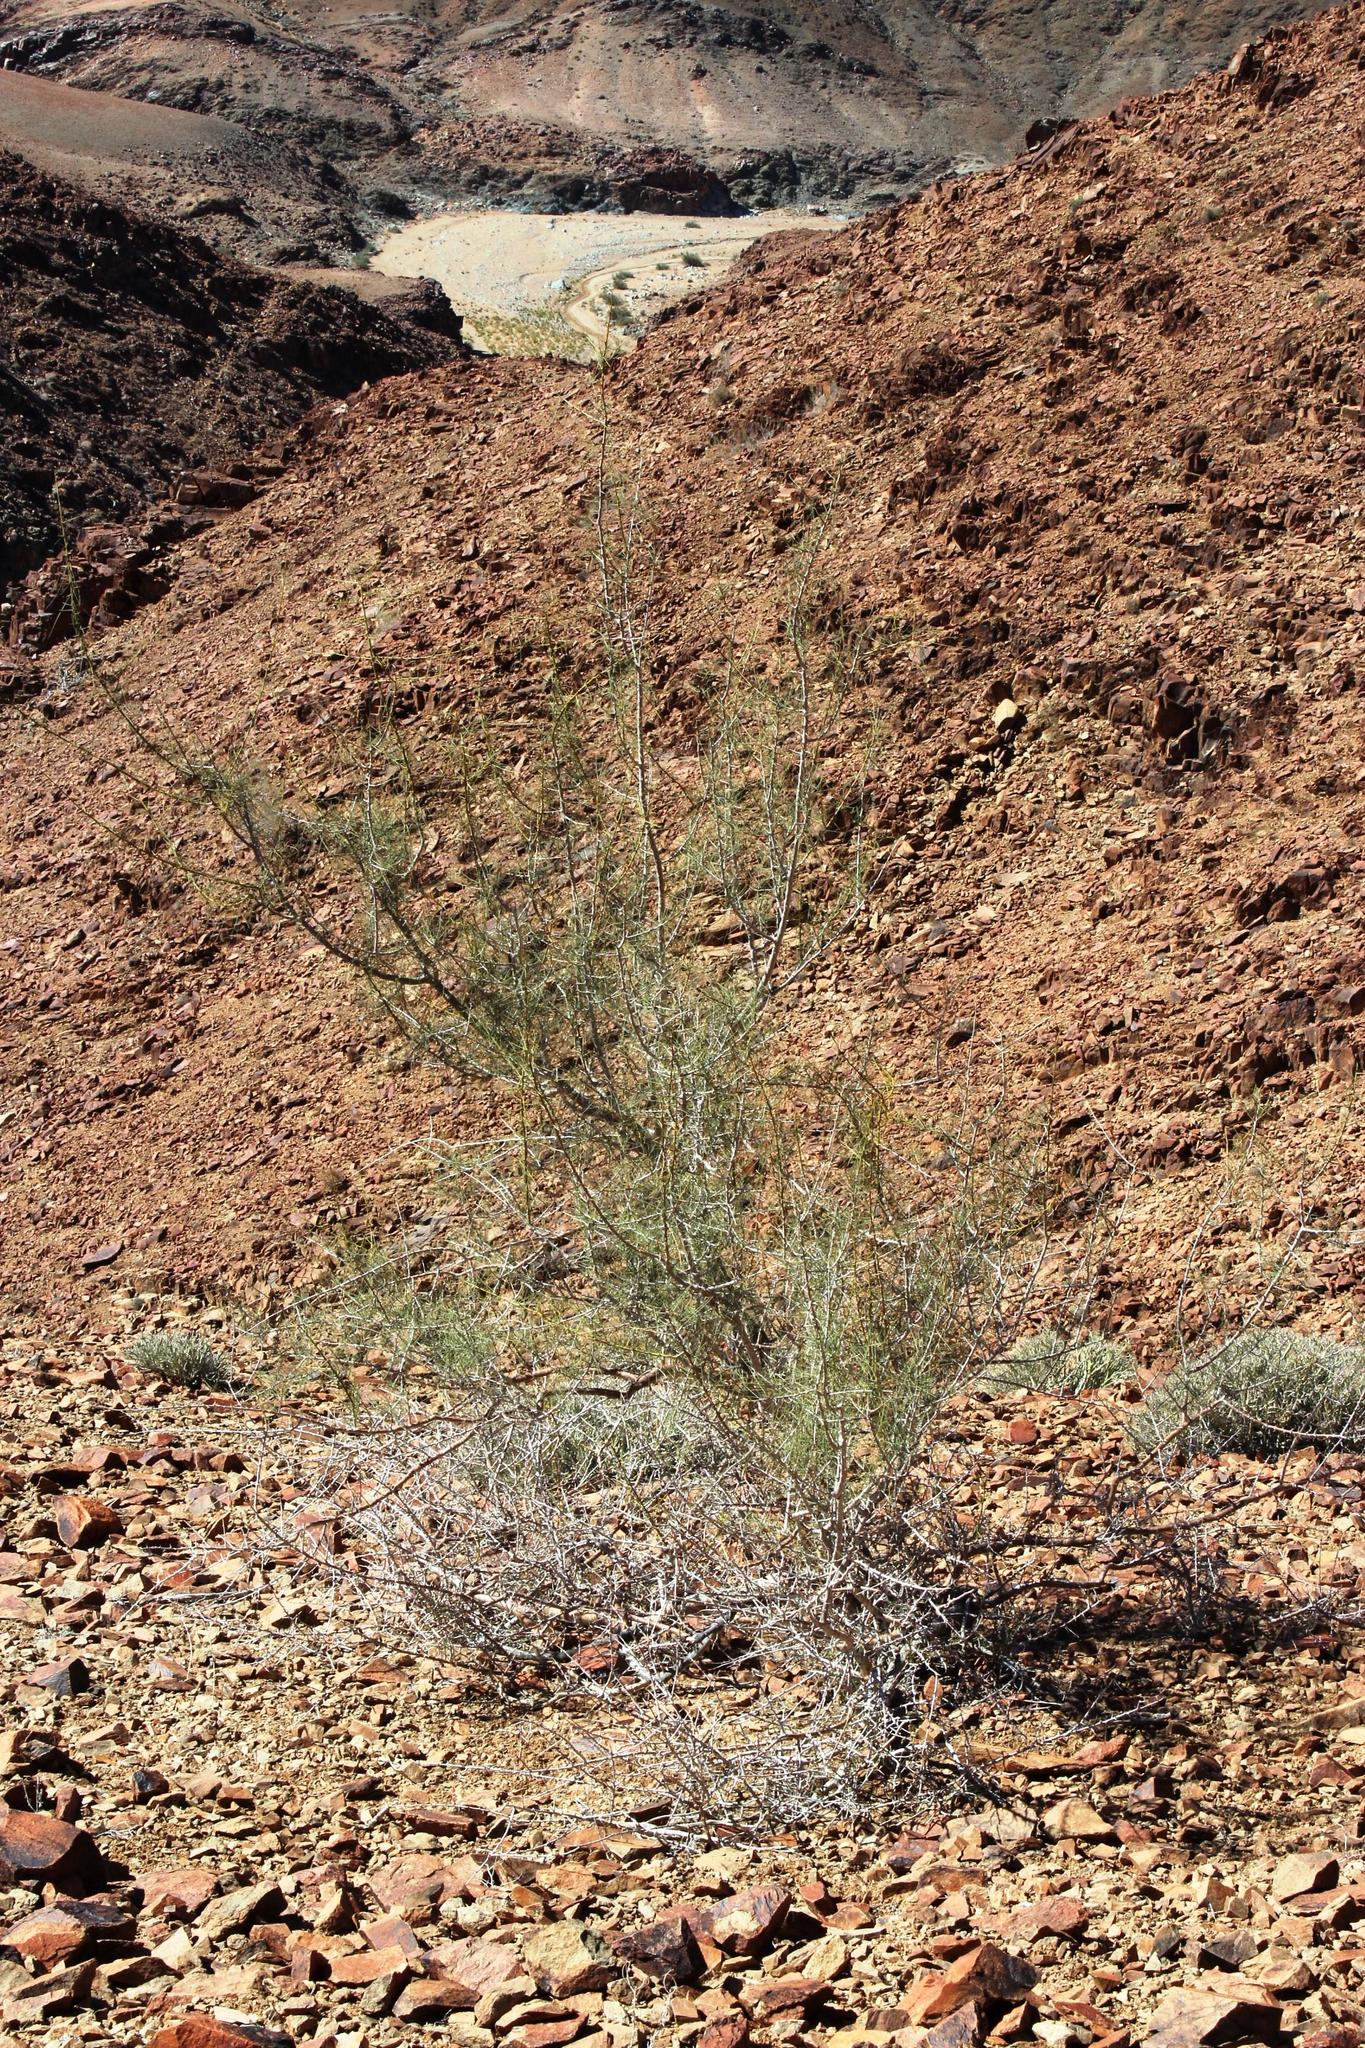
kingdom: Plantae
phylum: Tracheophyta
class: Magnoliopsida
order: Fabales
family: Fabaceae
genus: Parkinsonia
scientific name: Parkinsonia africana
